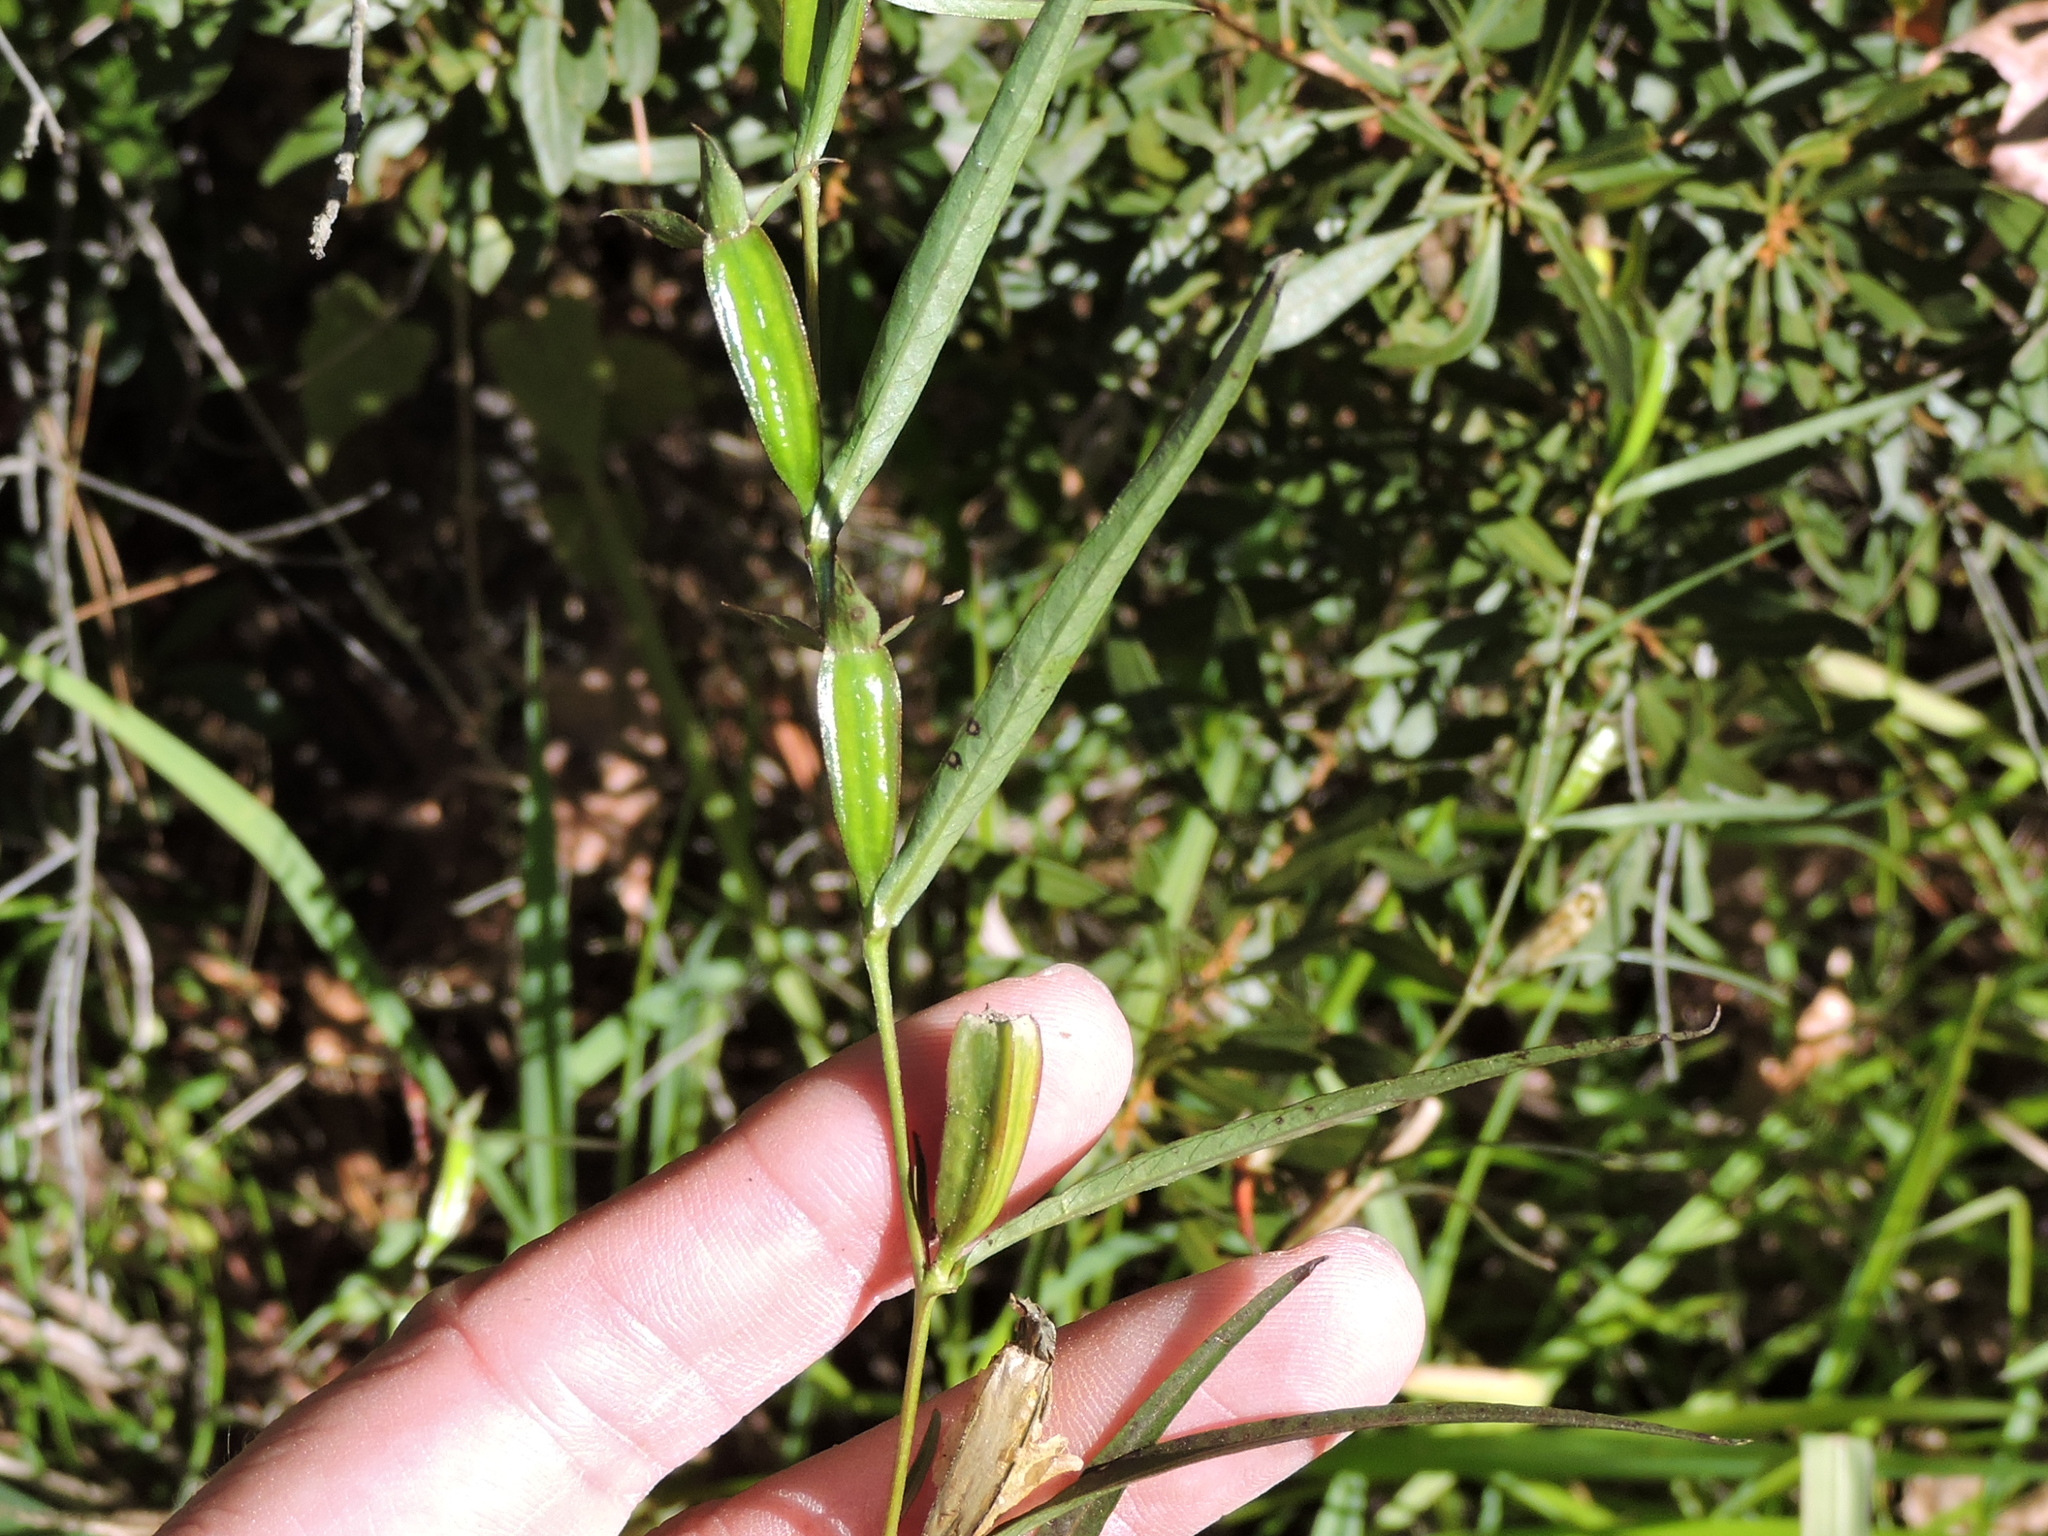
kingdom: Plantae
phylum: Tracheophyta
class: Magnoliopsida
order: Myrtales
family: Onagraceae
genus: Ludwigia
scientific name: Ludwigia decurrens
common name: Winged water-primrose
